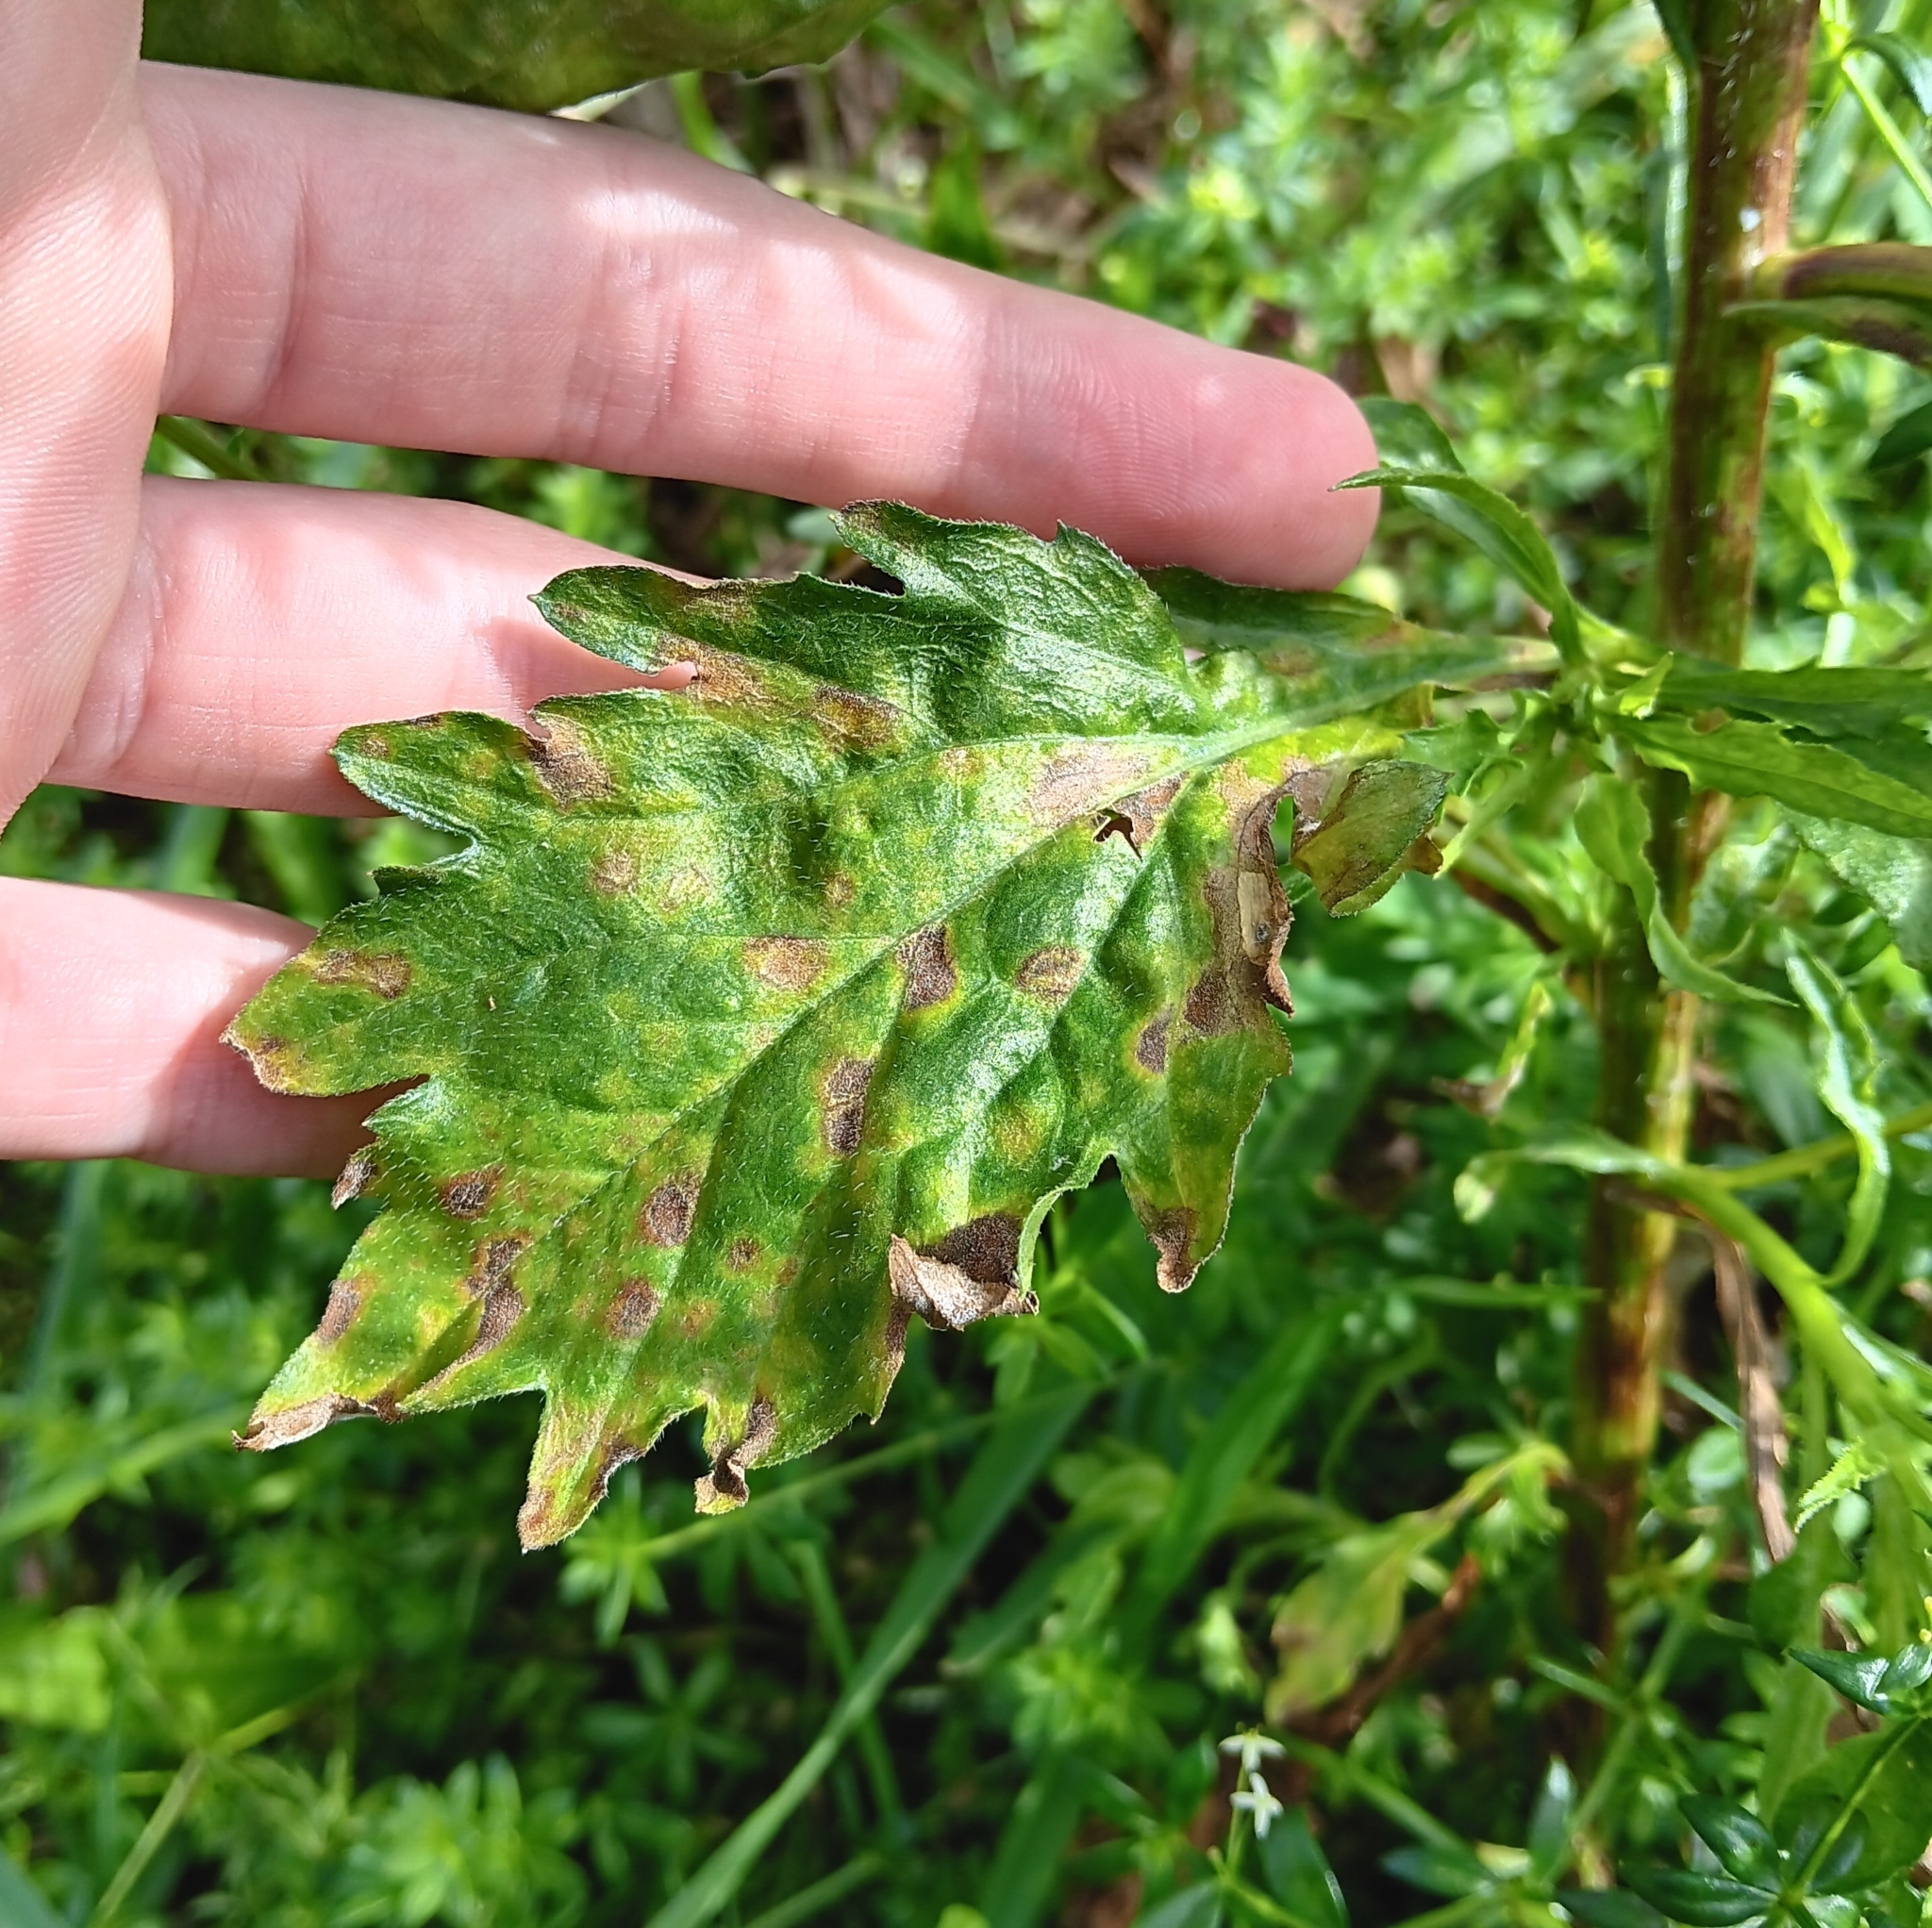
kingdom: Plantae
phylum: Tracheophyta
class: Magnoliopsida
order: Asterales
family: Asteraceae
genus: Erigeron
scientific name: Erigeron annuus
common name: Tall fleabane
